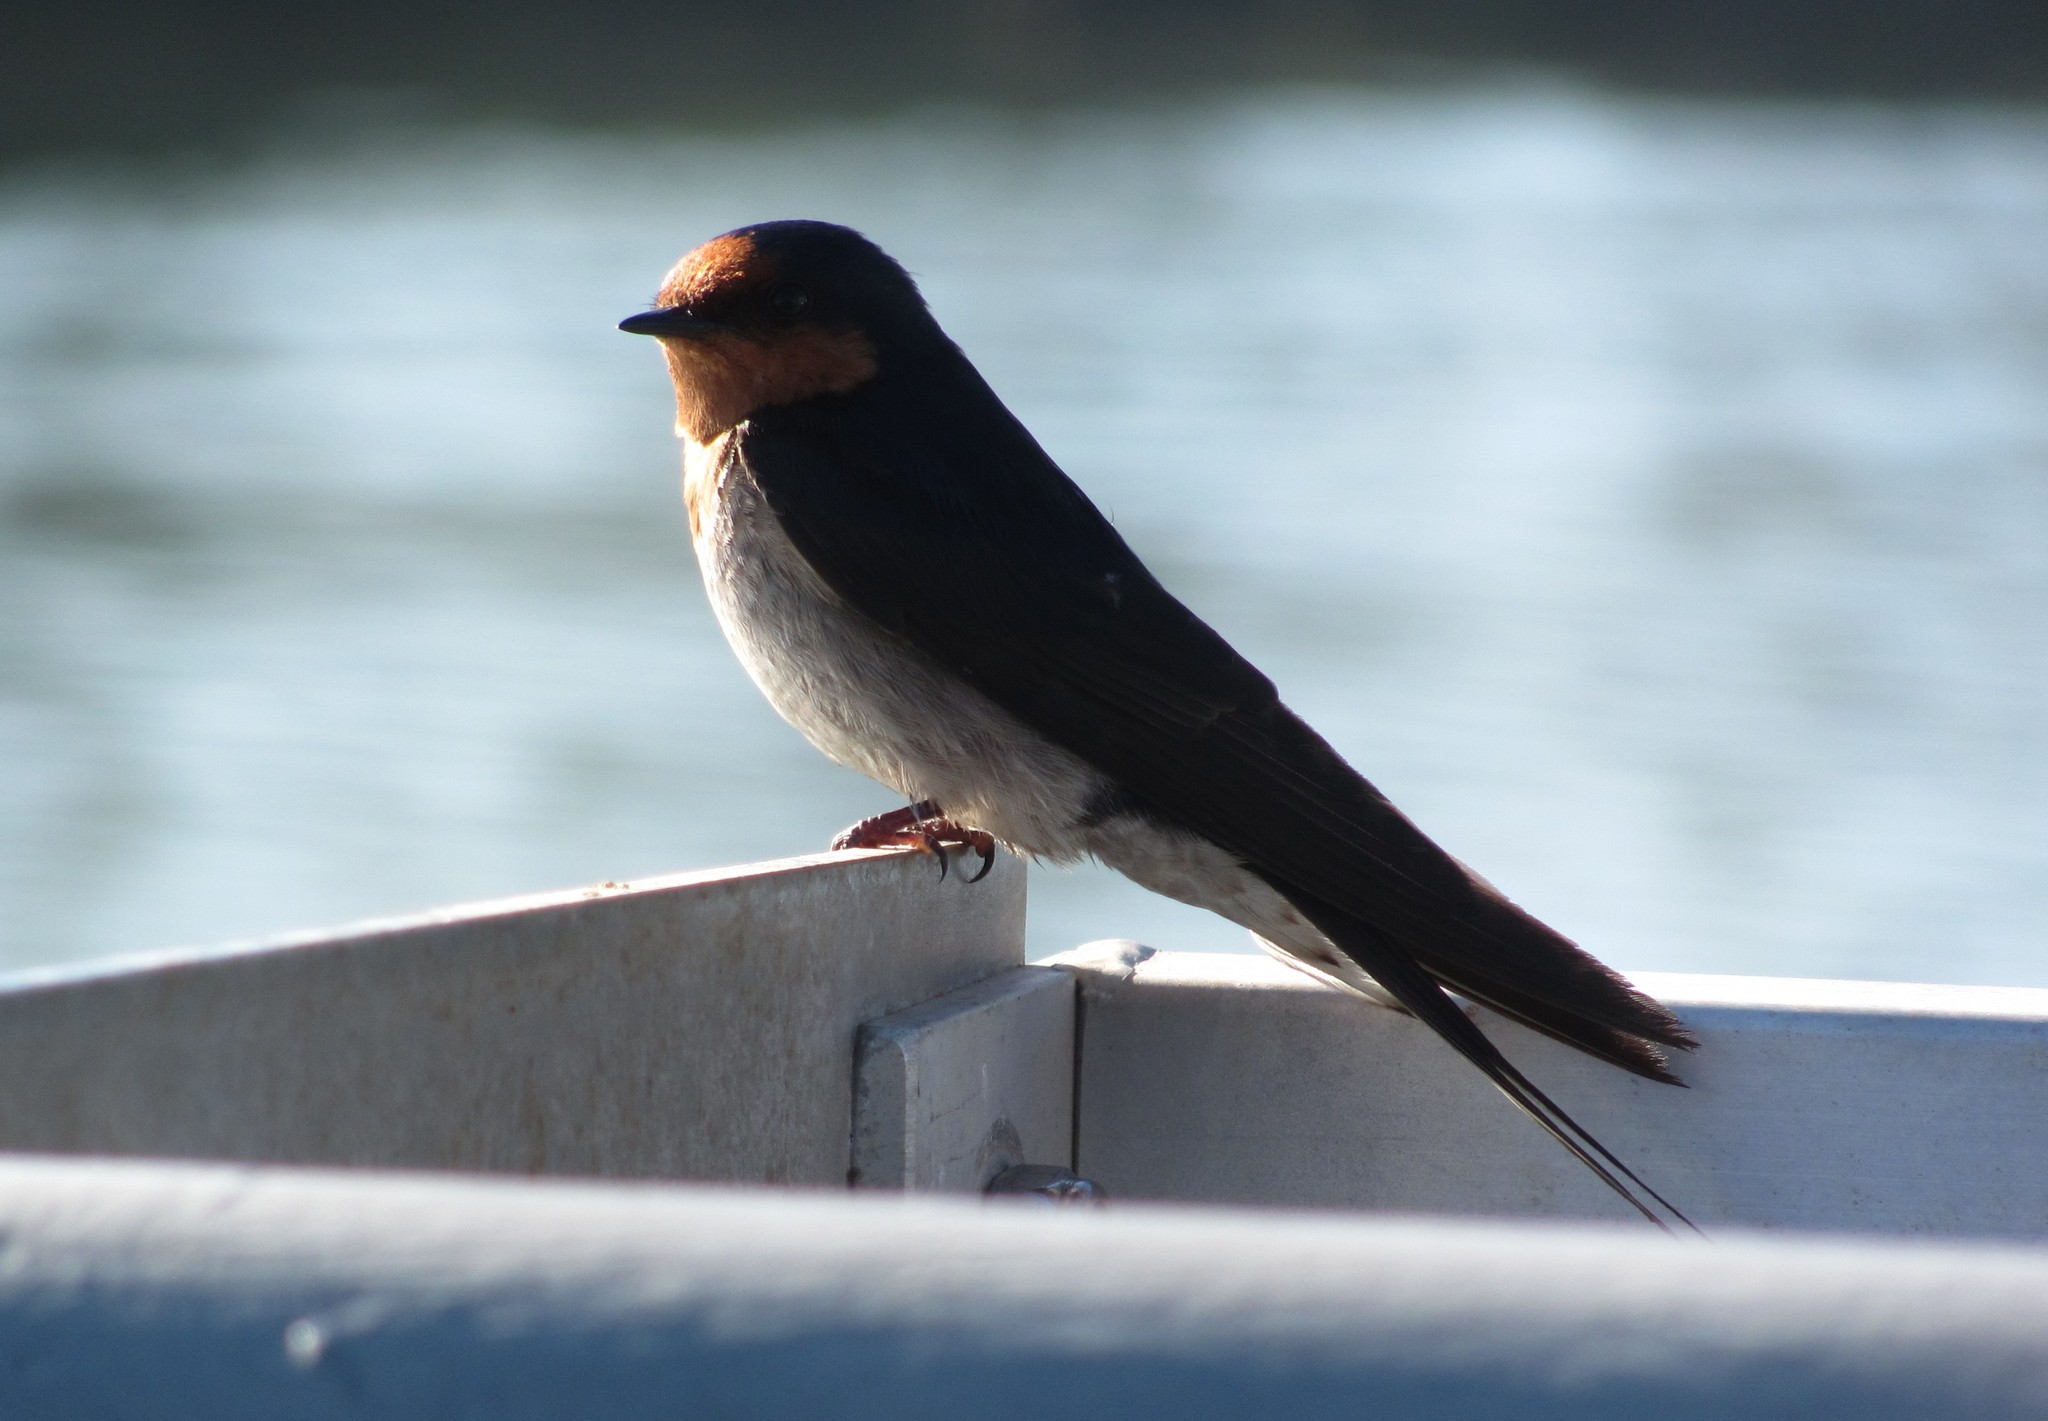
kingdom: Animalia
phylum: Chordata
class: Aves
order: Passeriformes
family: Hirundinidae
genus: Hirundo
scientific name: Hirundo neoxena
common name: Welcome swallow
